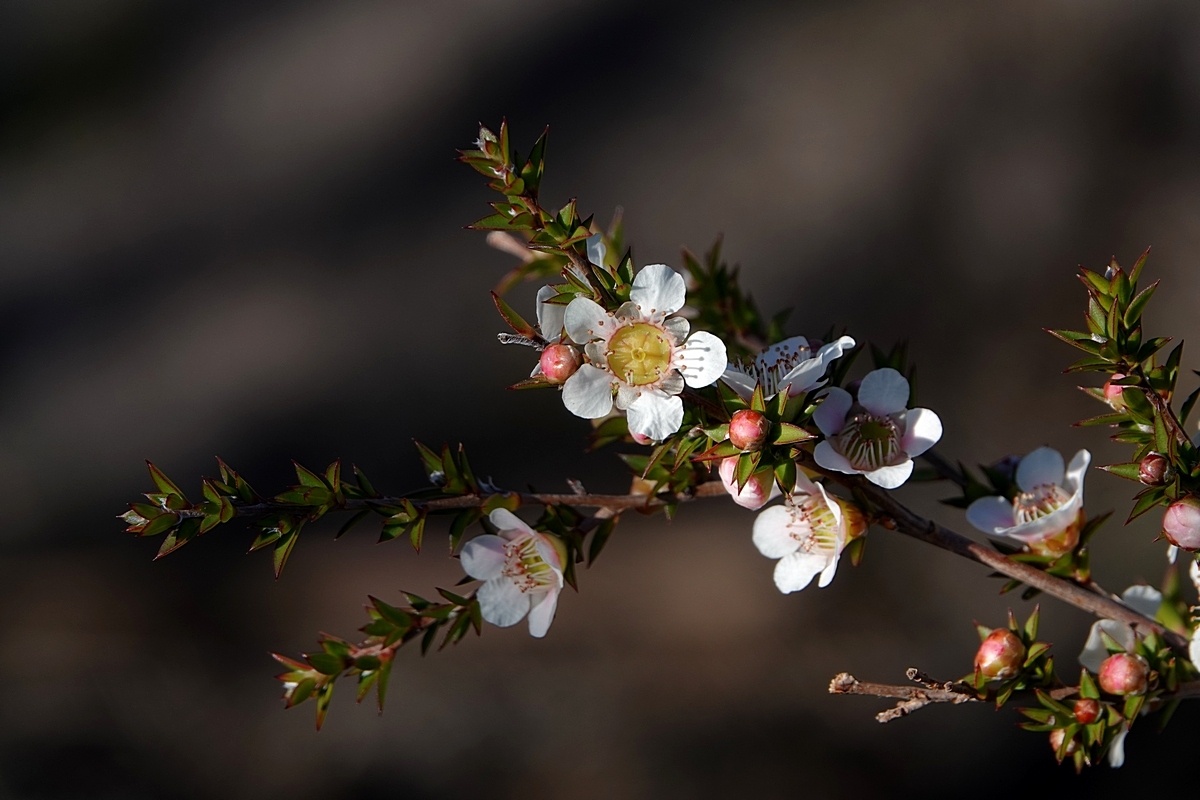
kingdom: Plantae
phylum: Tracheophyta
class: Magnoliopsida
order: Myrtales
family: Myrtaceae
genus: Leptospermum
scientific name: Leptospermum continentale
